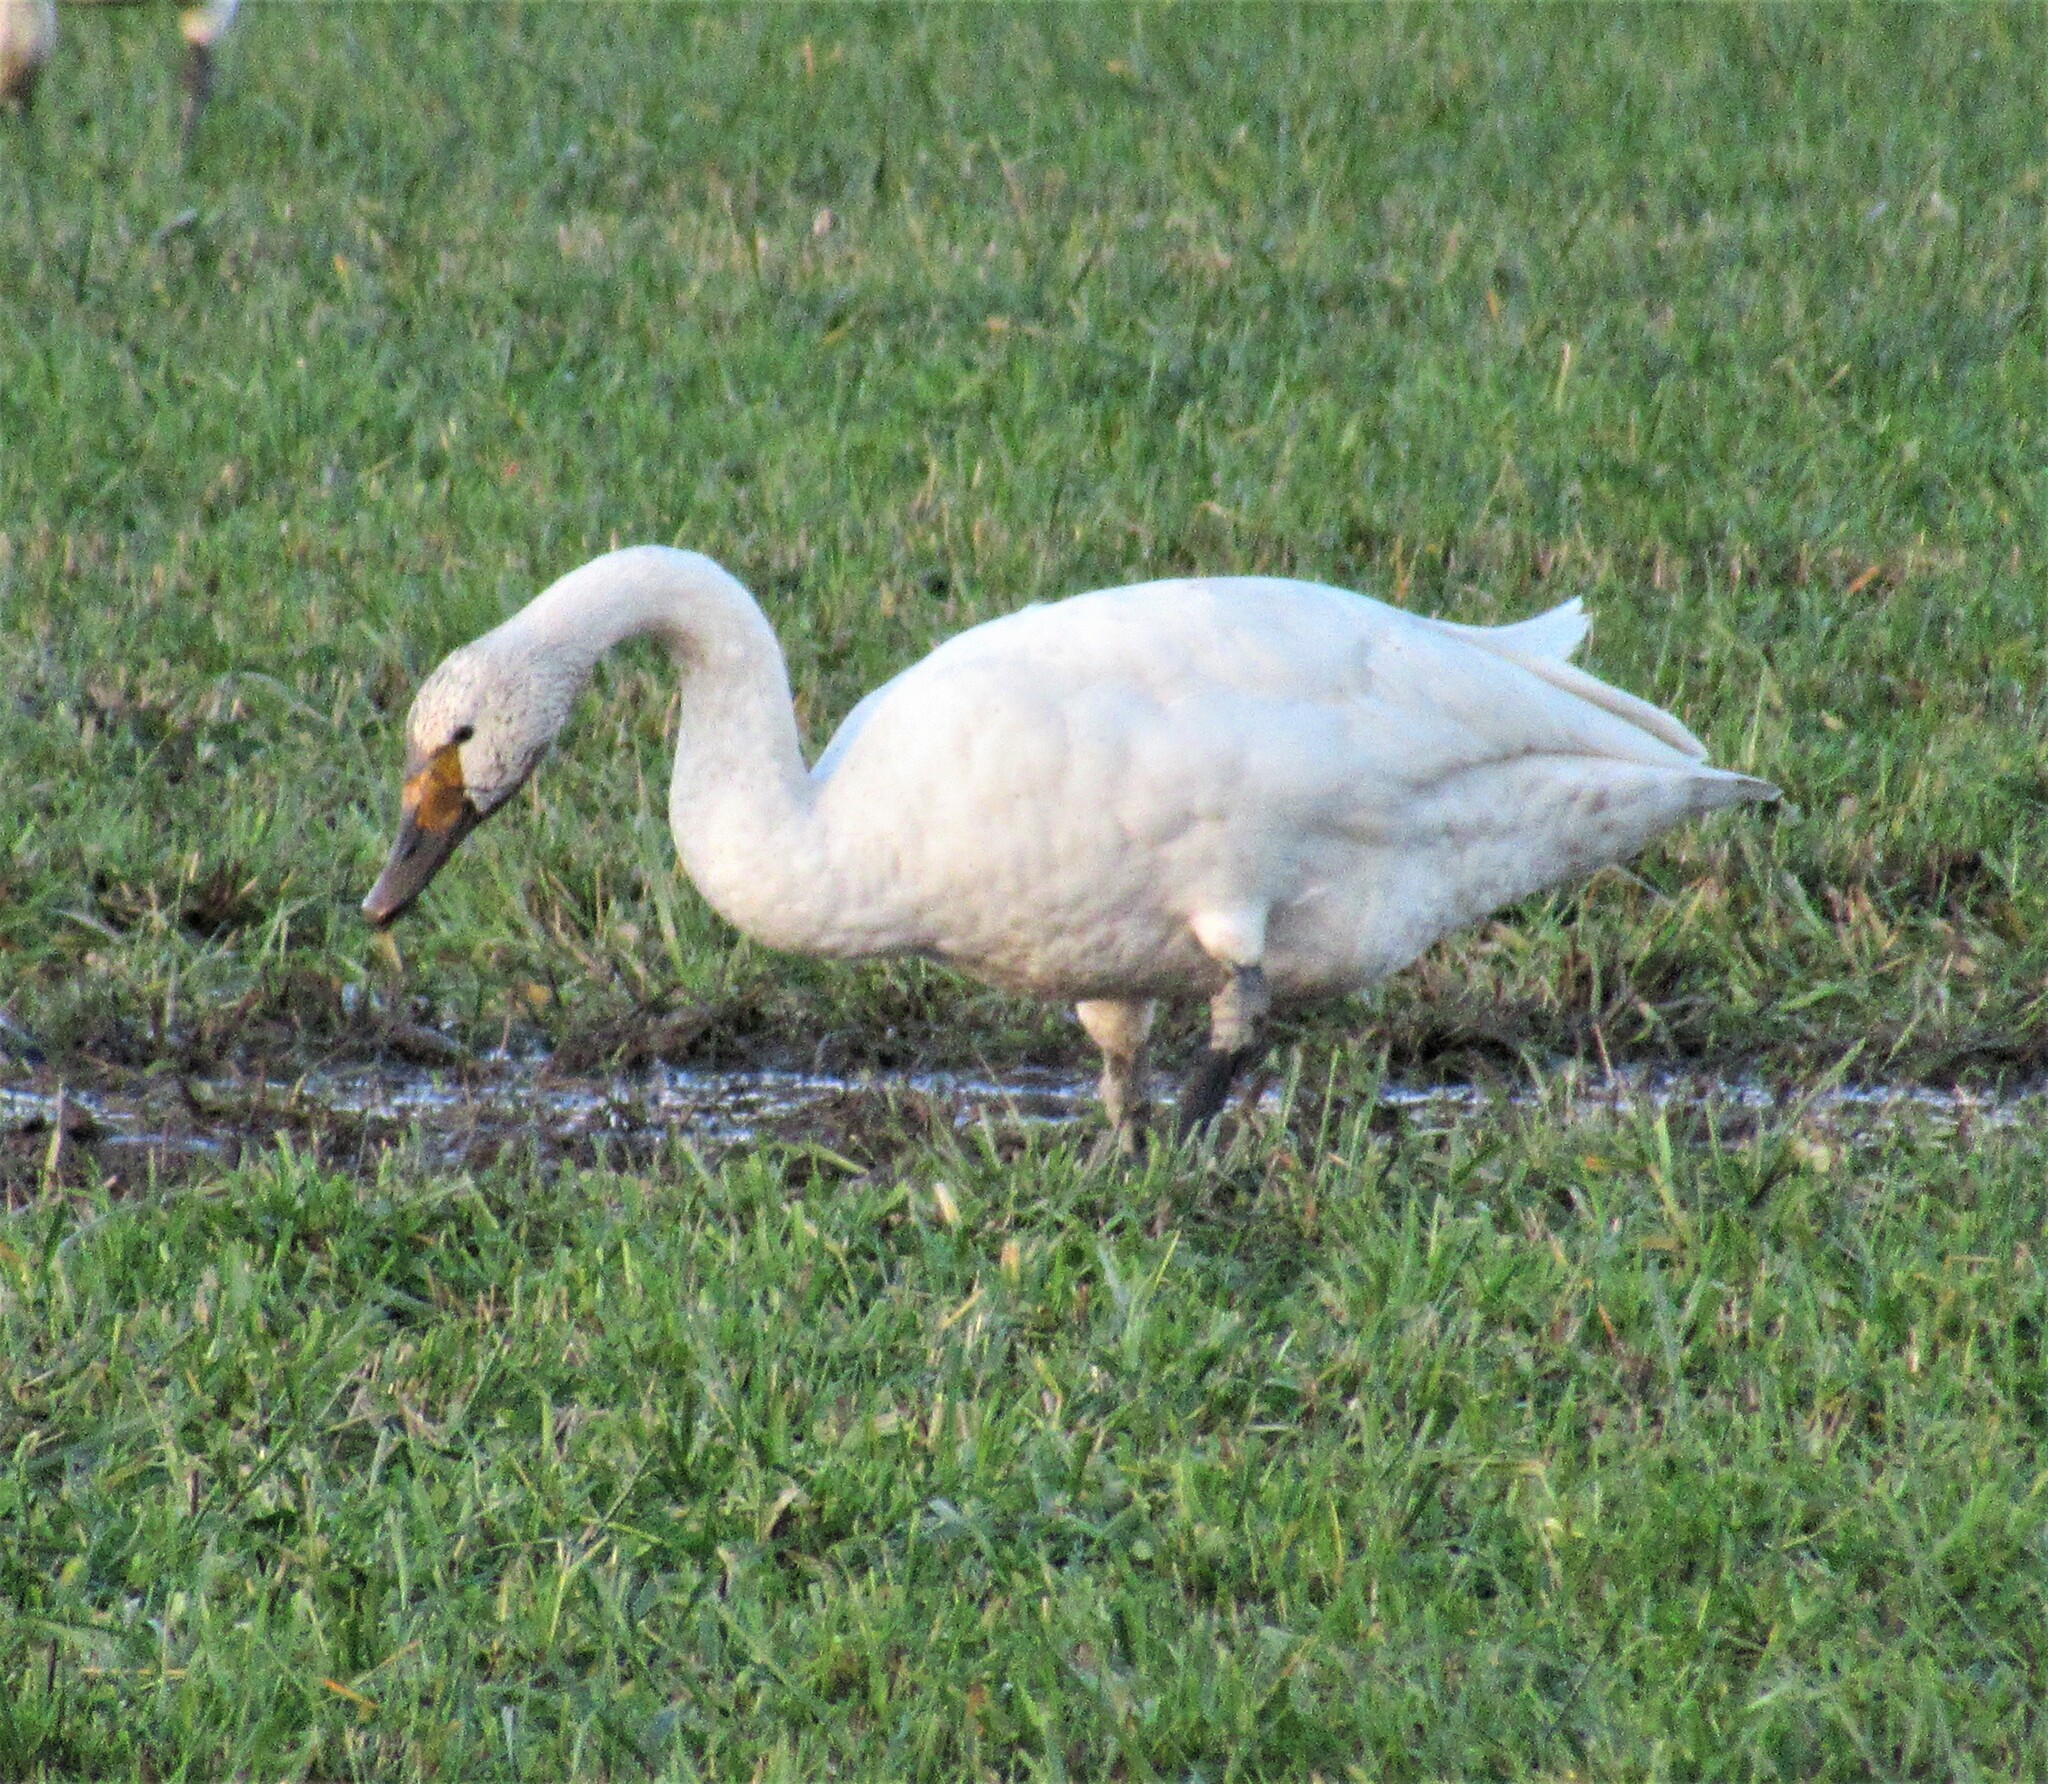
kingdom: Animalia
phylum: Chordata
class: Aves
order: Anseriformes
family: Anatidae
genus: Cygnus
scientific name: Cygnus columbianus
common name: Tundra swan
